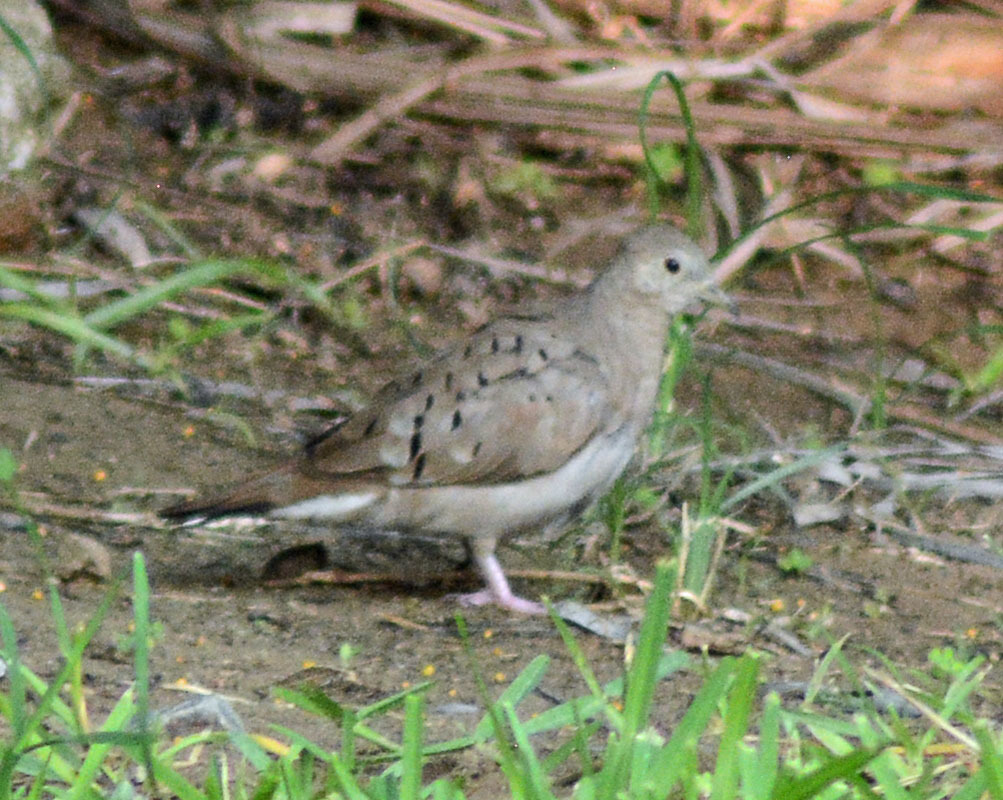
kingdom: Animalia
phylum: Chordata
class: Aves
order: Columbiformes
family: Columbidae
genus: Columbina
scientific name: Columbina talpacoti
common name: Ruddy ground dove
